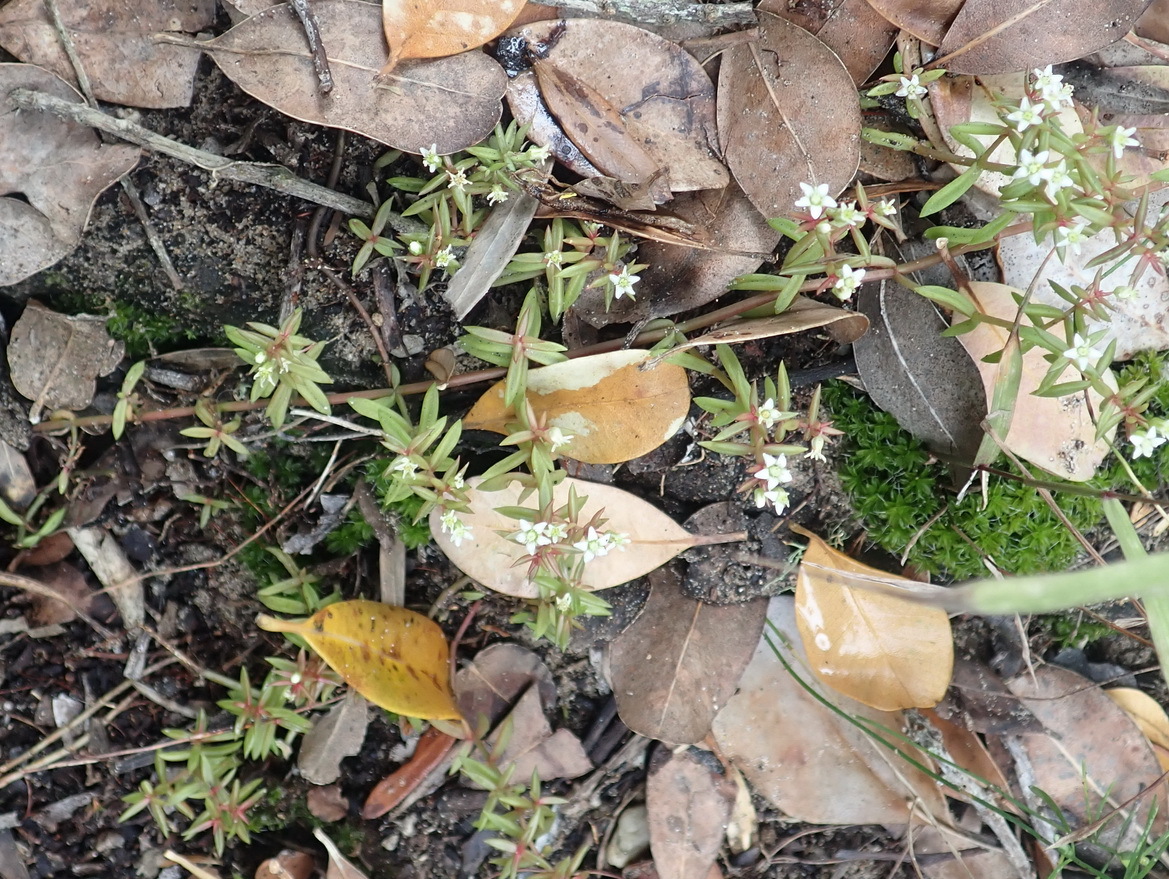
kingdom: Plantae
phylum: Tracheophyta
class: Magnoliopsida
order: Saxifragales
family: Crassulaceae
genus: Crassula
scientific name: Crassula expansa
